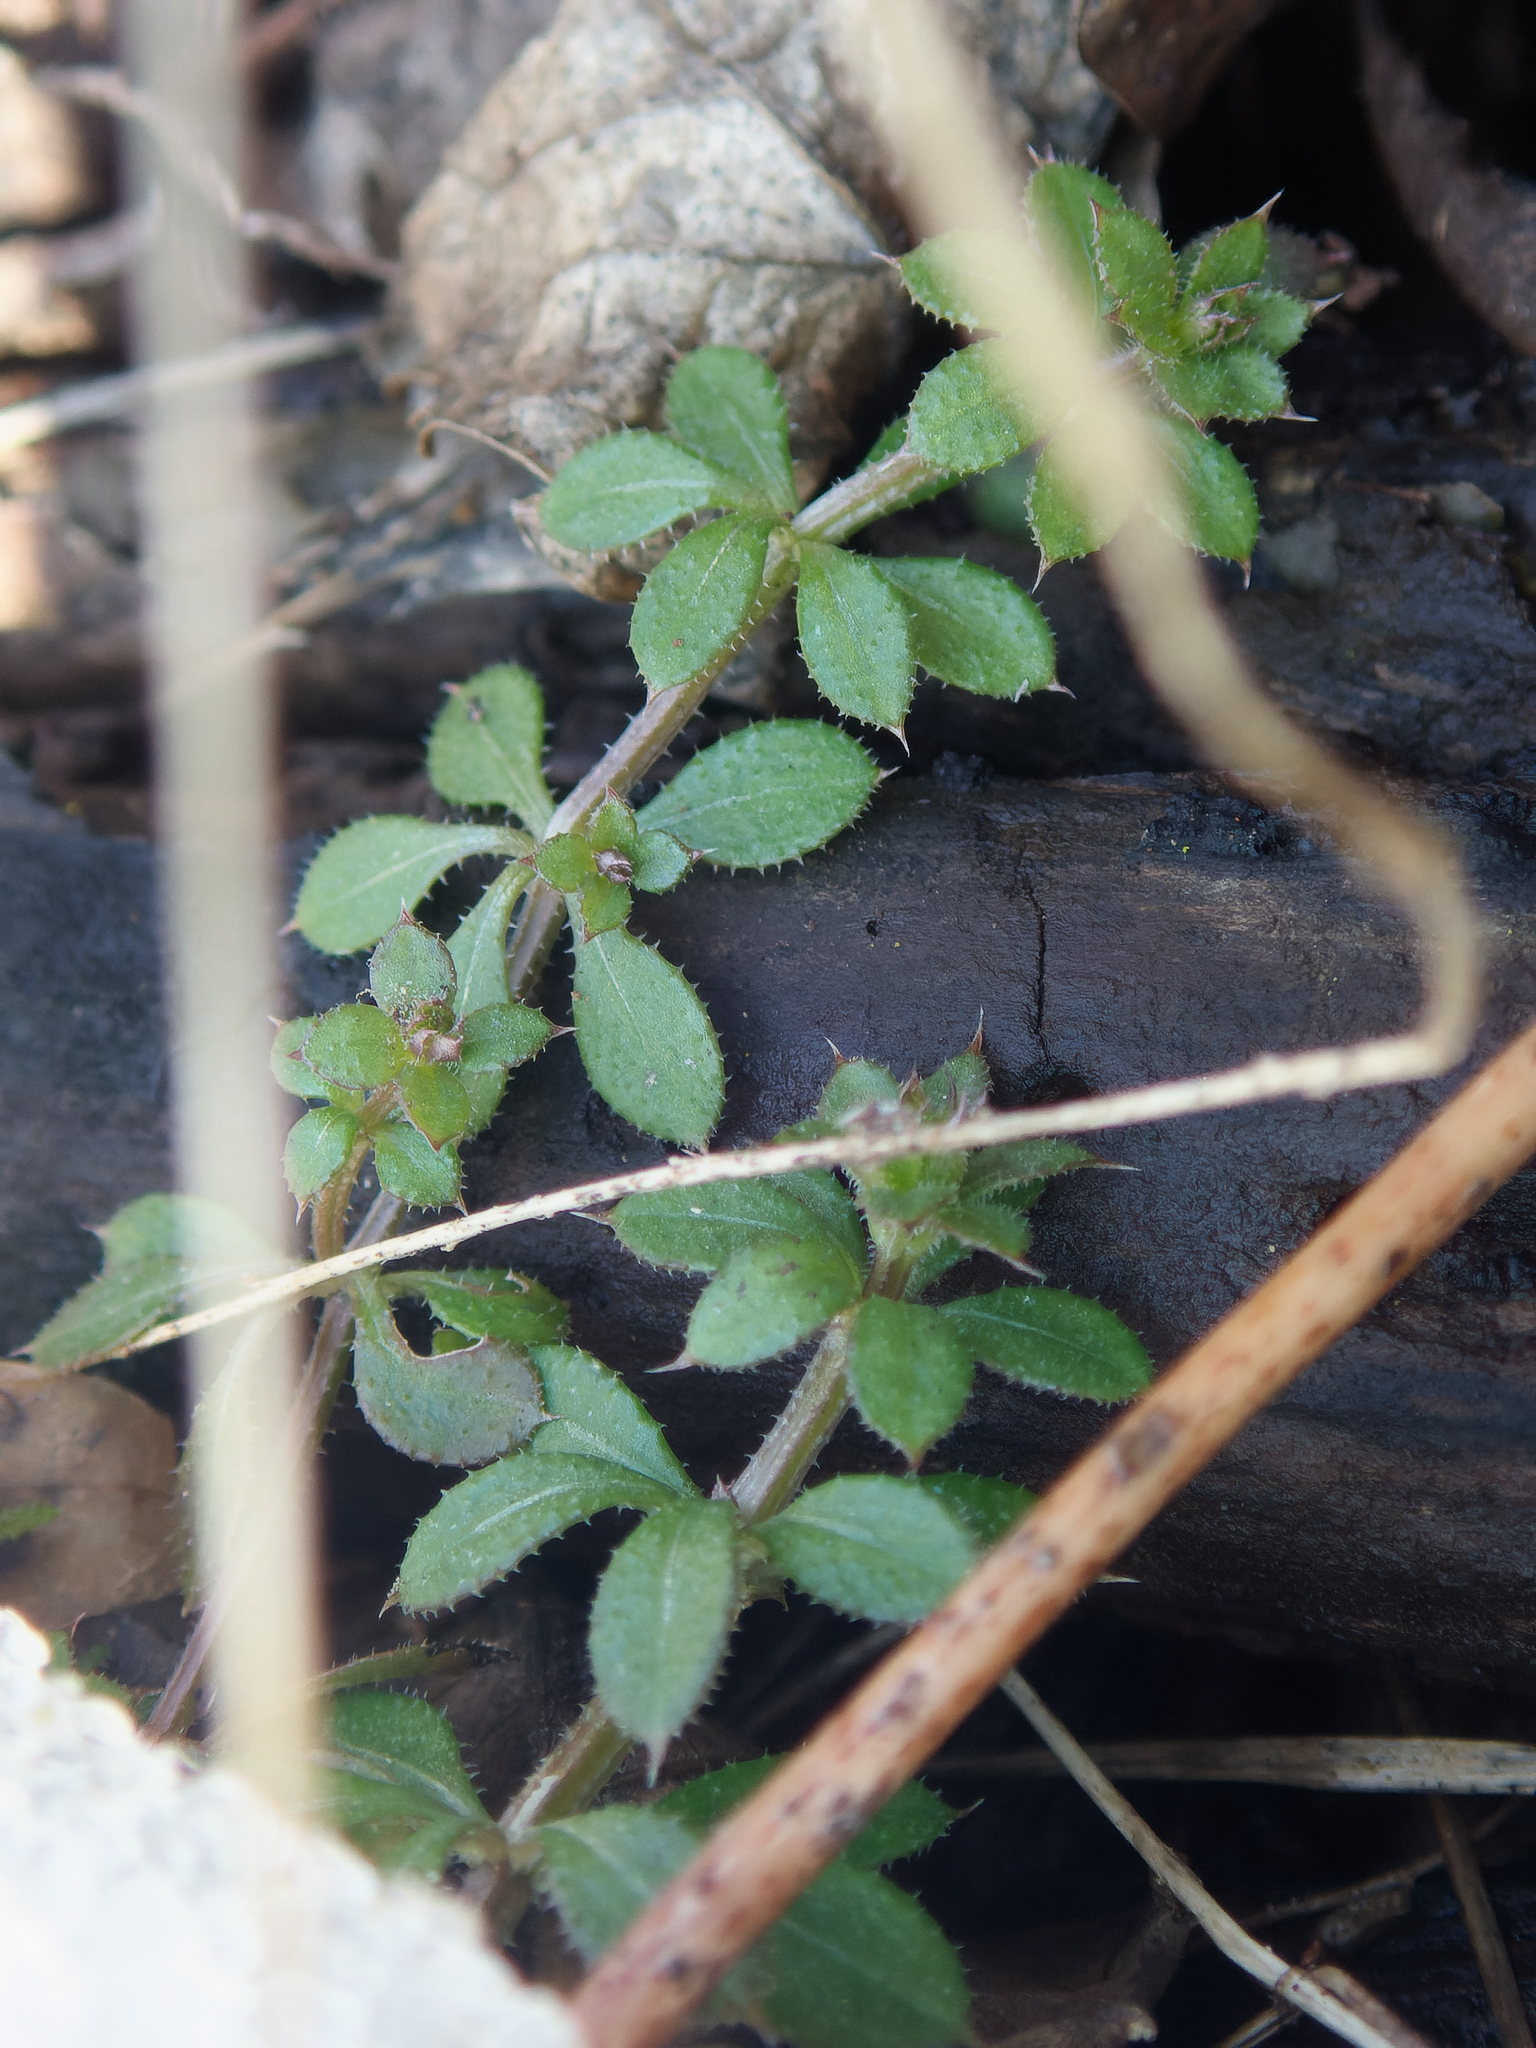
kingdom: Plantae
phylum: Tracheophyta
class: Magnoliopsida
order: Gentianales
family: Rubiaceae
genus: Galium
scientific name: Galium aparine
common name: Cleavers
